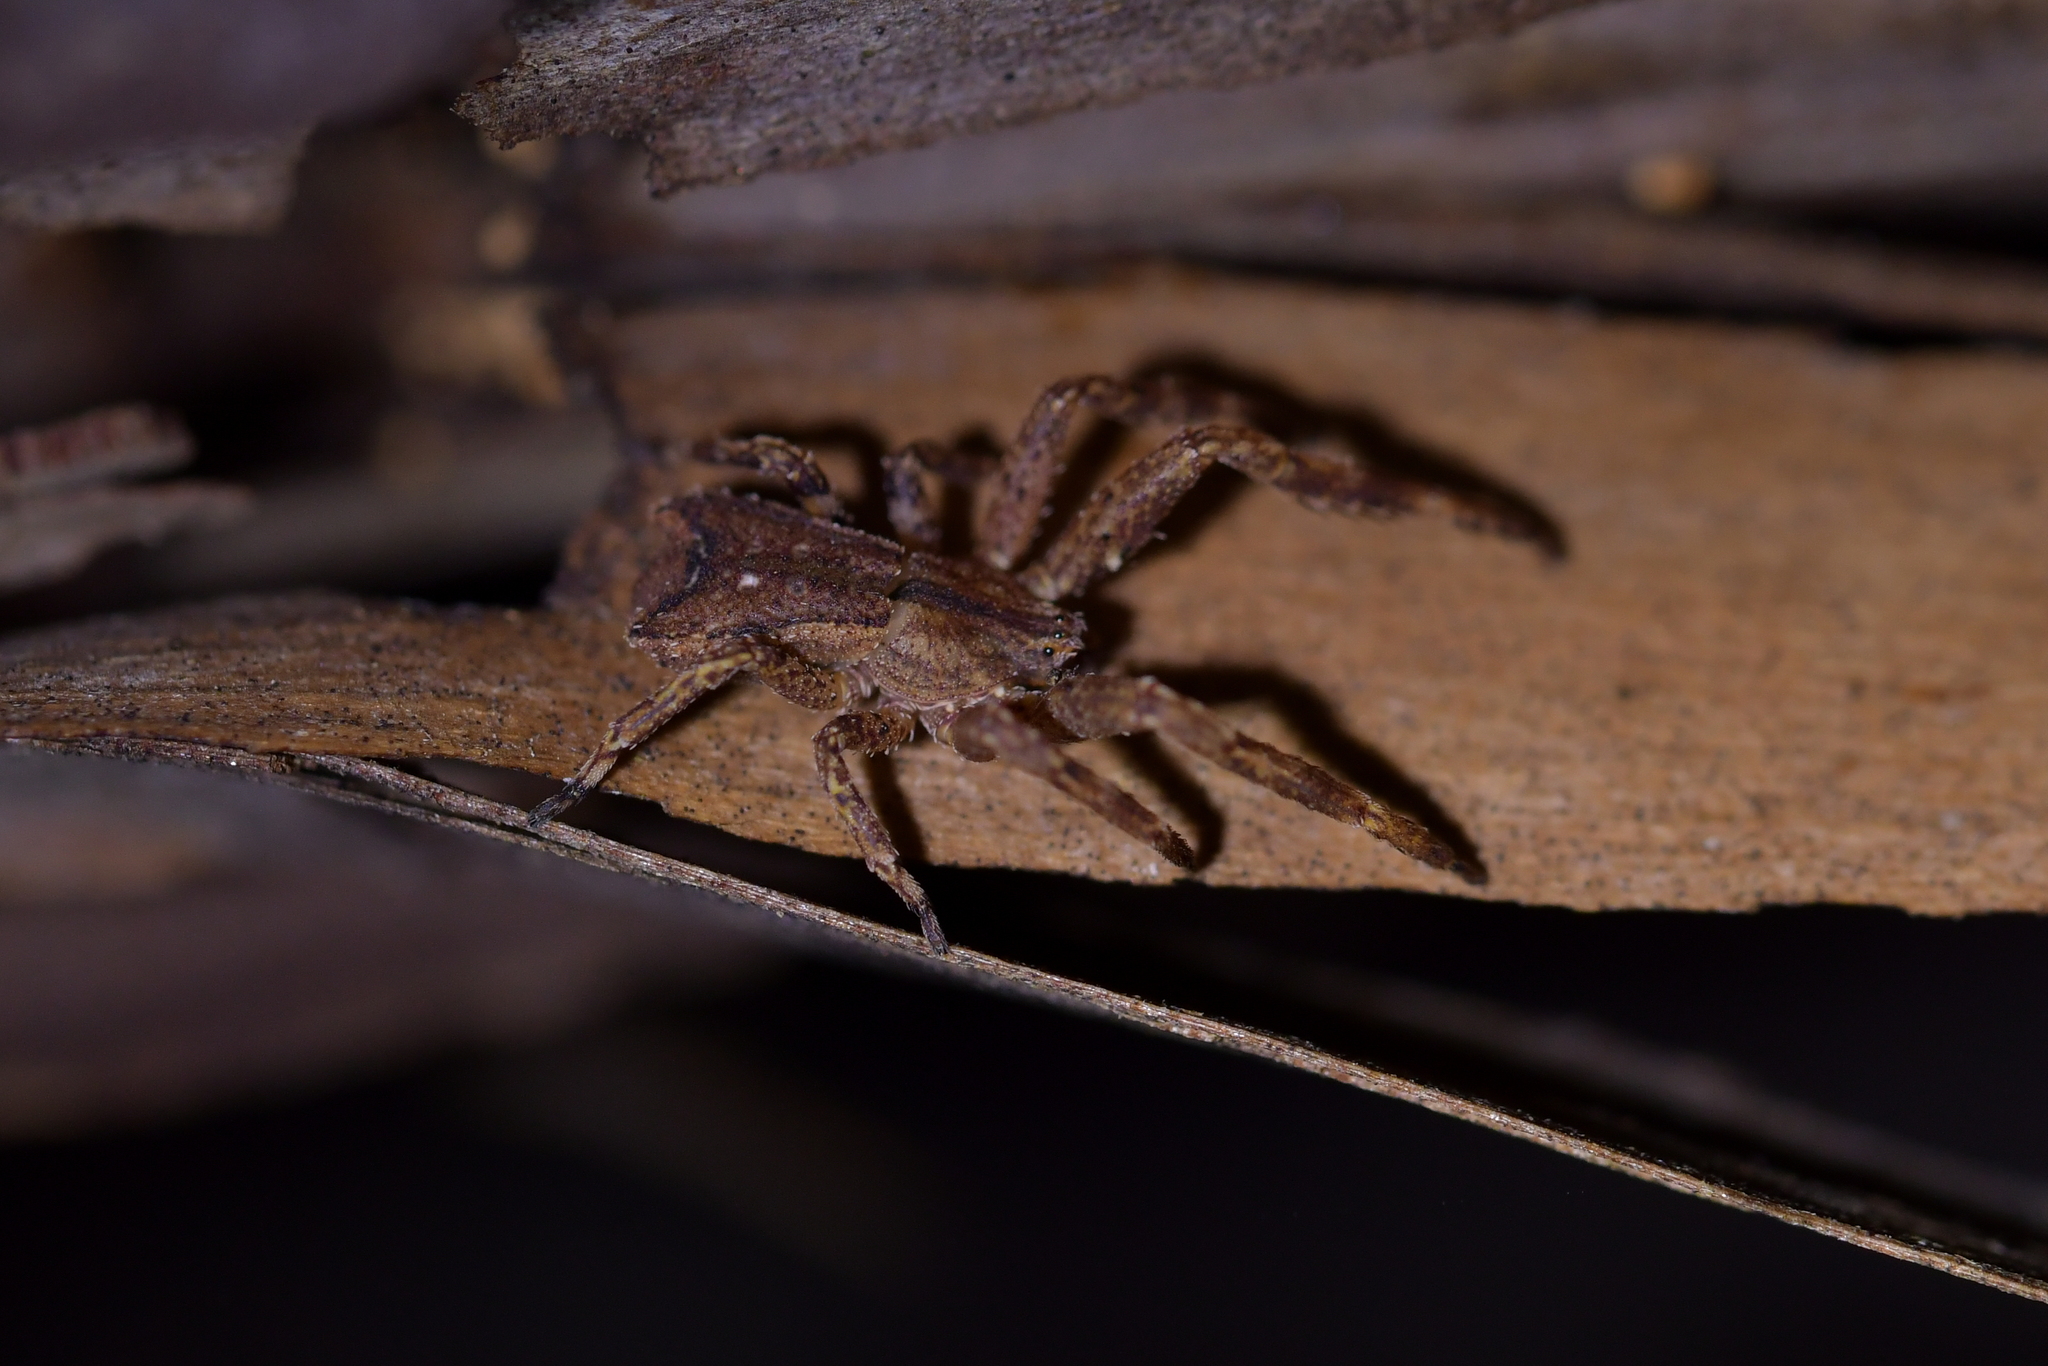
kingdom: Animalia
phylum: Arthropoda
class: Arachnida
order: Araneae
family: Thomisidae
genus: Sidymella
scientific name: Sidymella angularis
